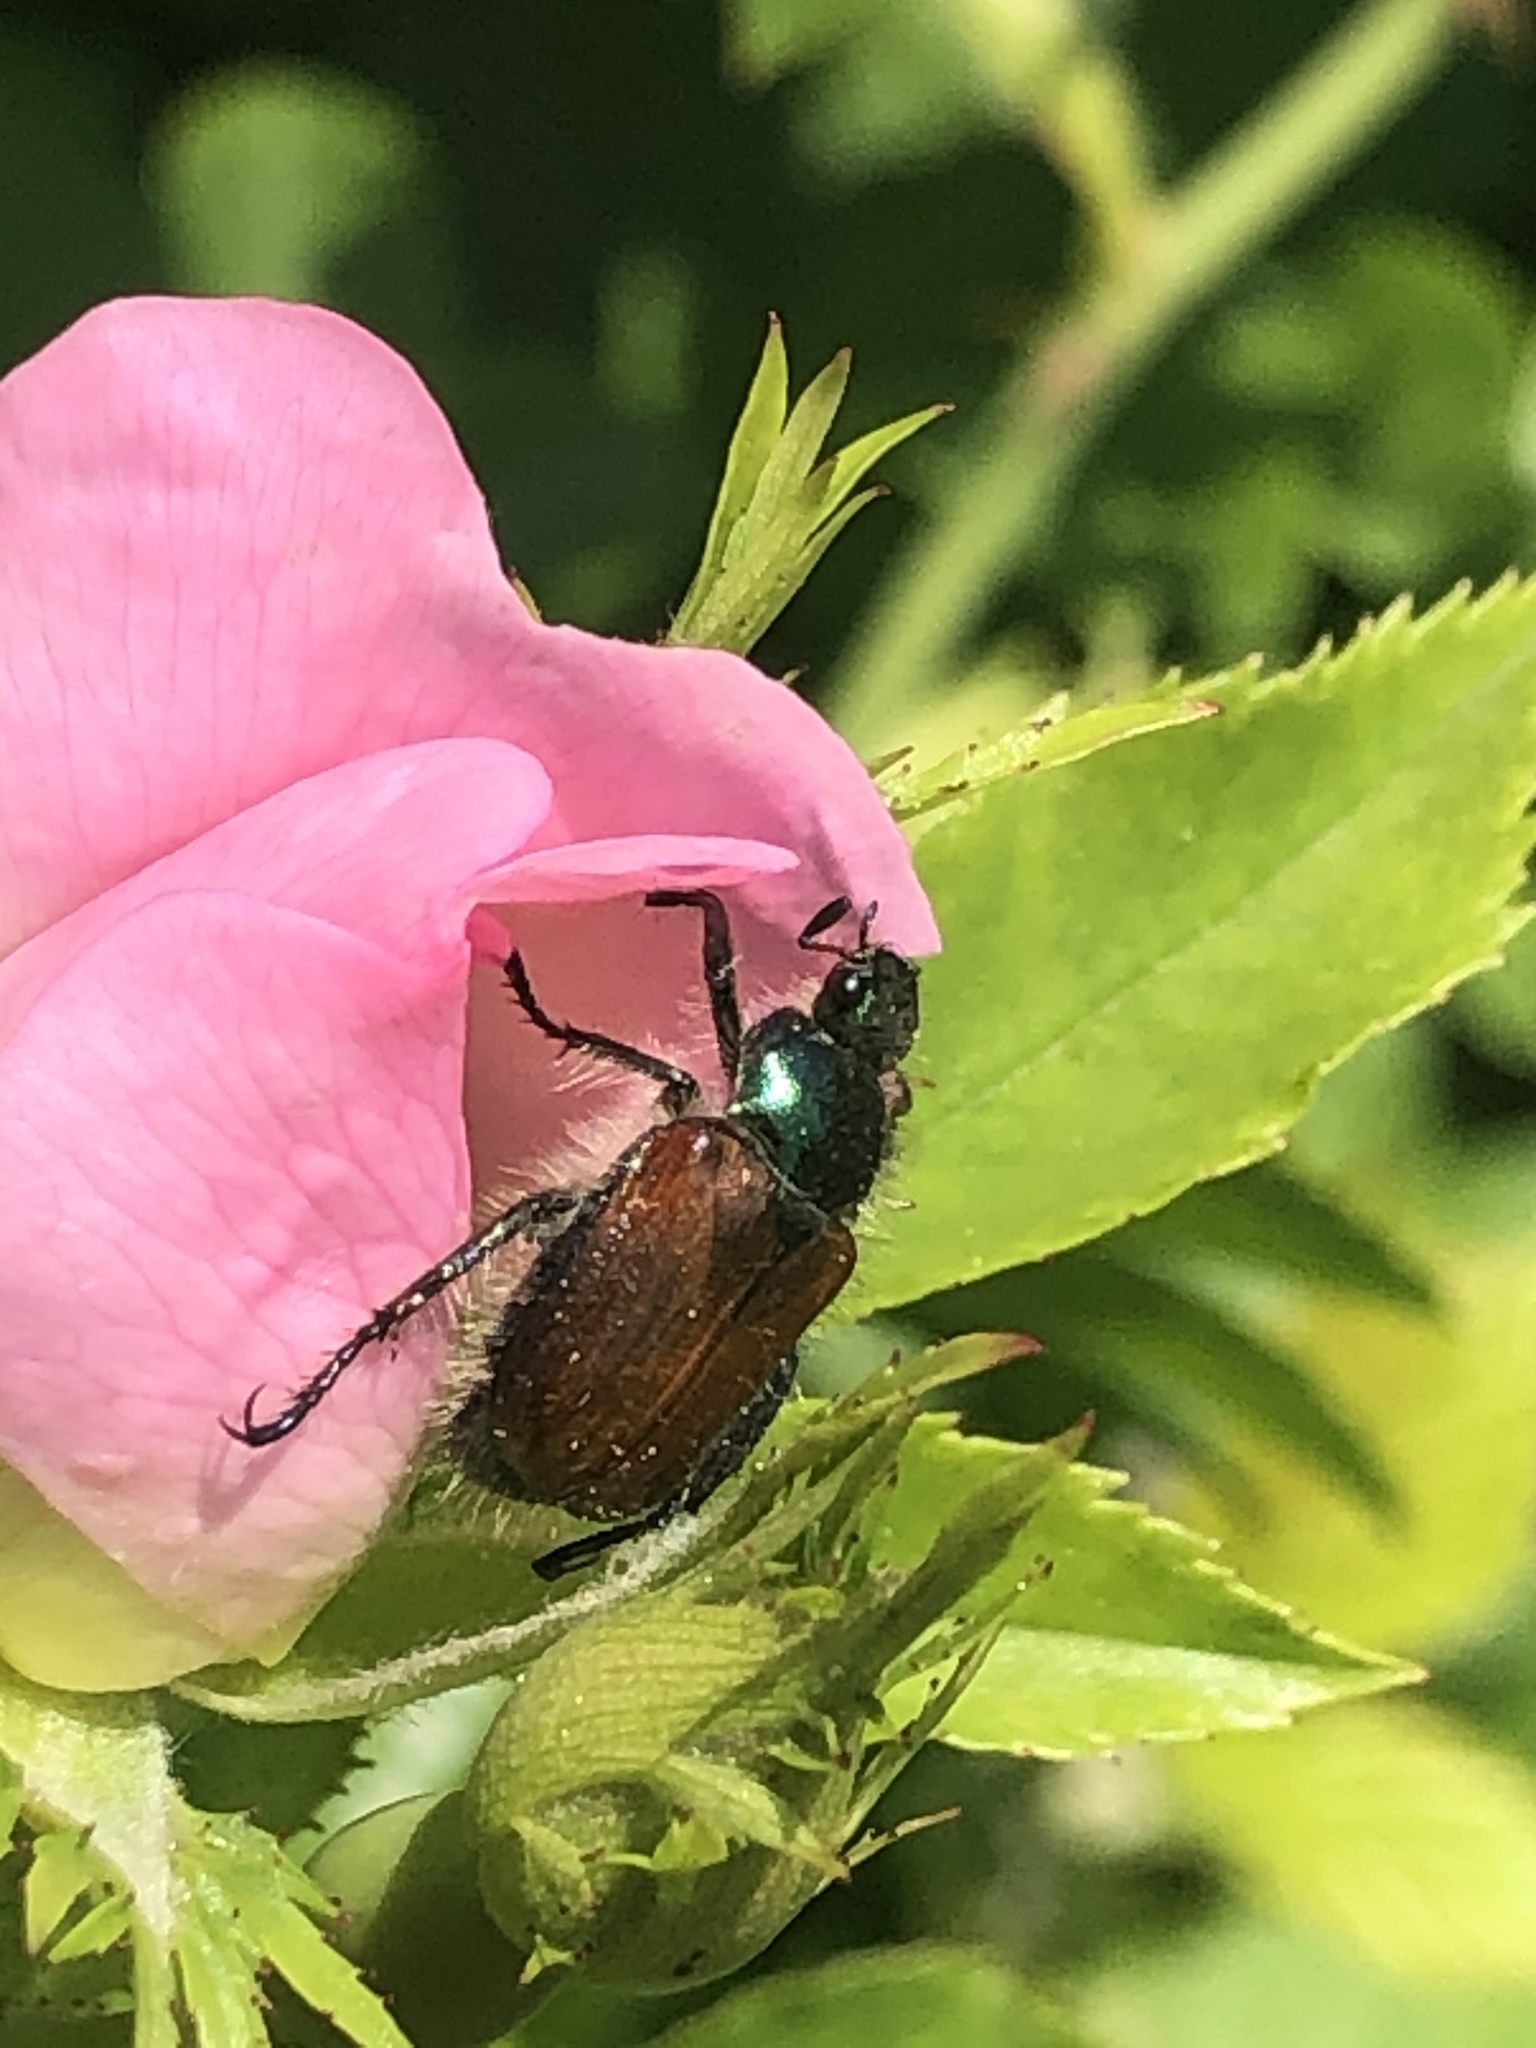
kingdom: Animalia
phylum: Arthropoda
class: Insecta
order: Coleoptera
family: Scarabaeidae
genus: Phyllopertha
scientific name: Phyllopertha horticola
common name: Garden chafer
